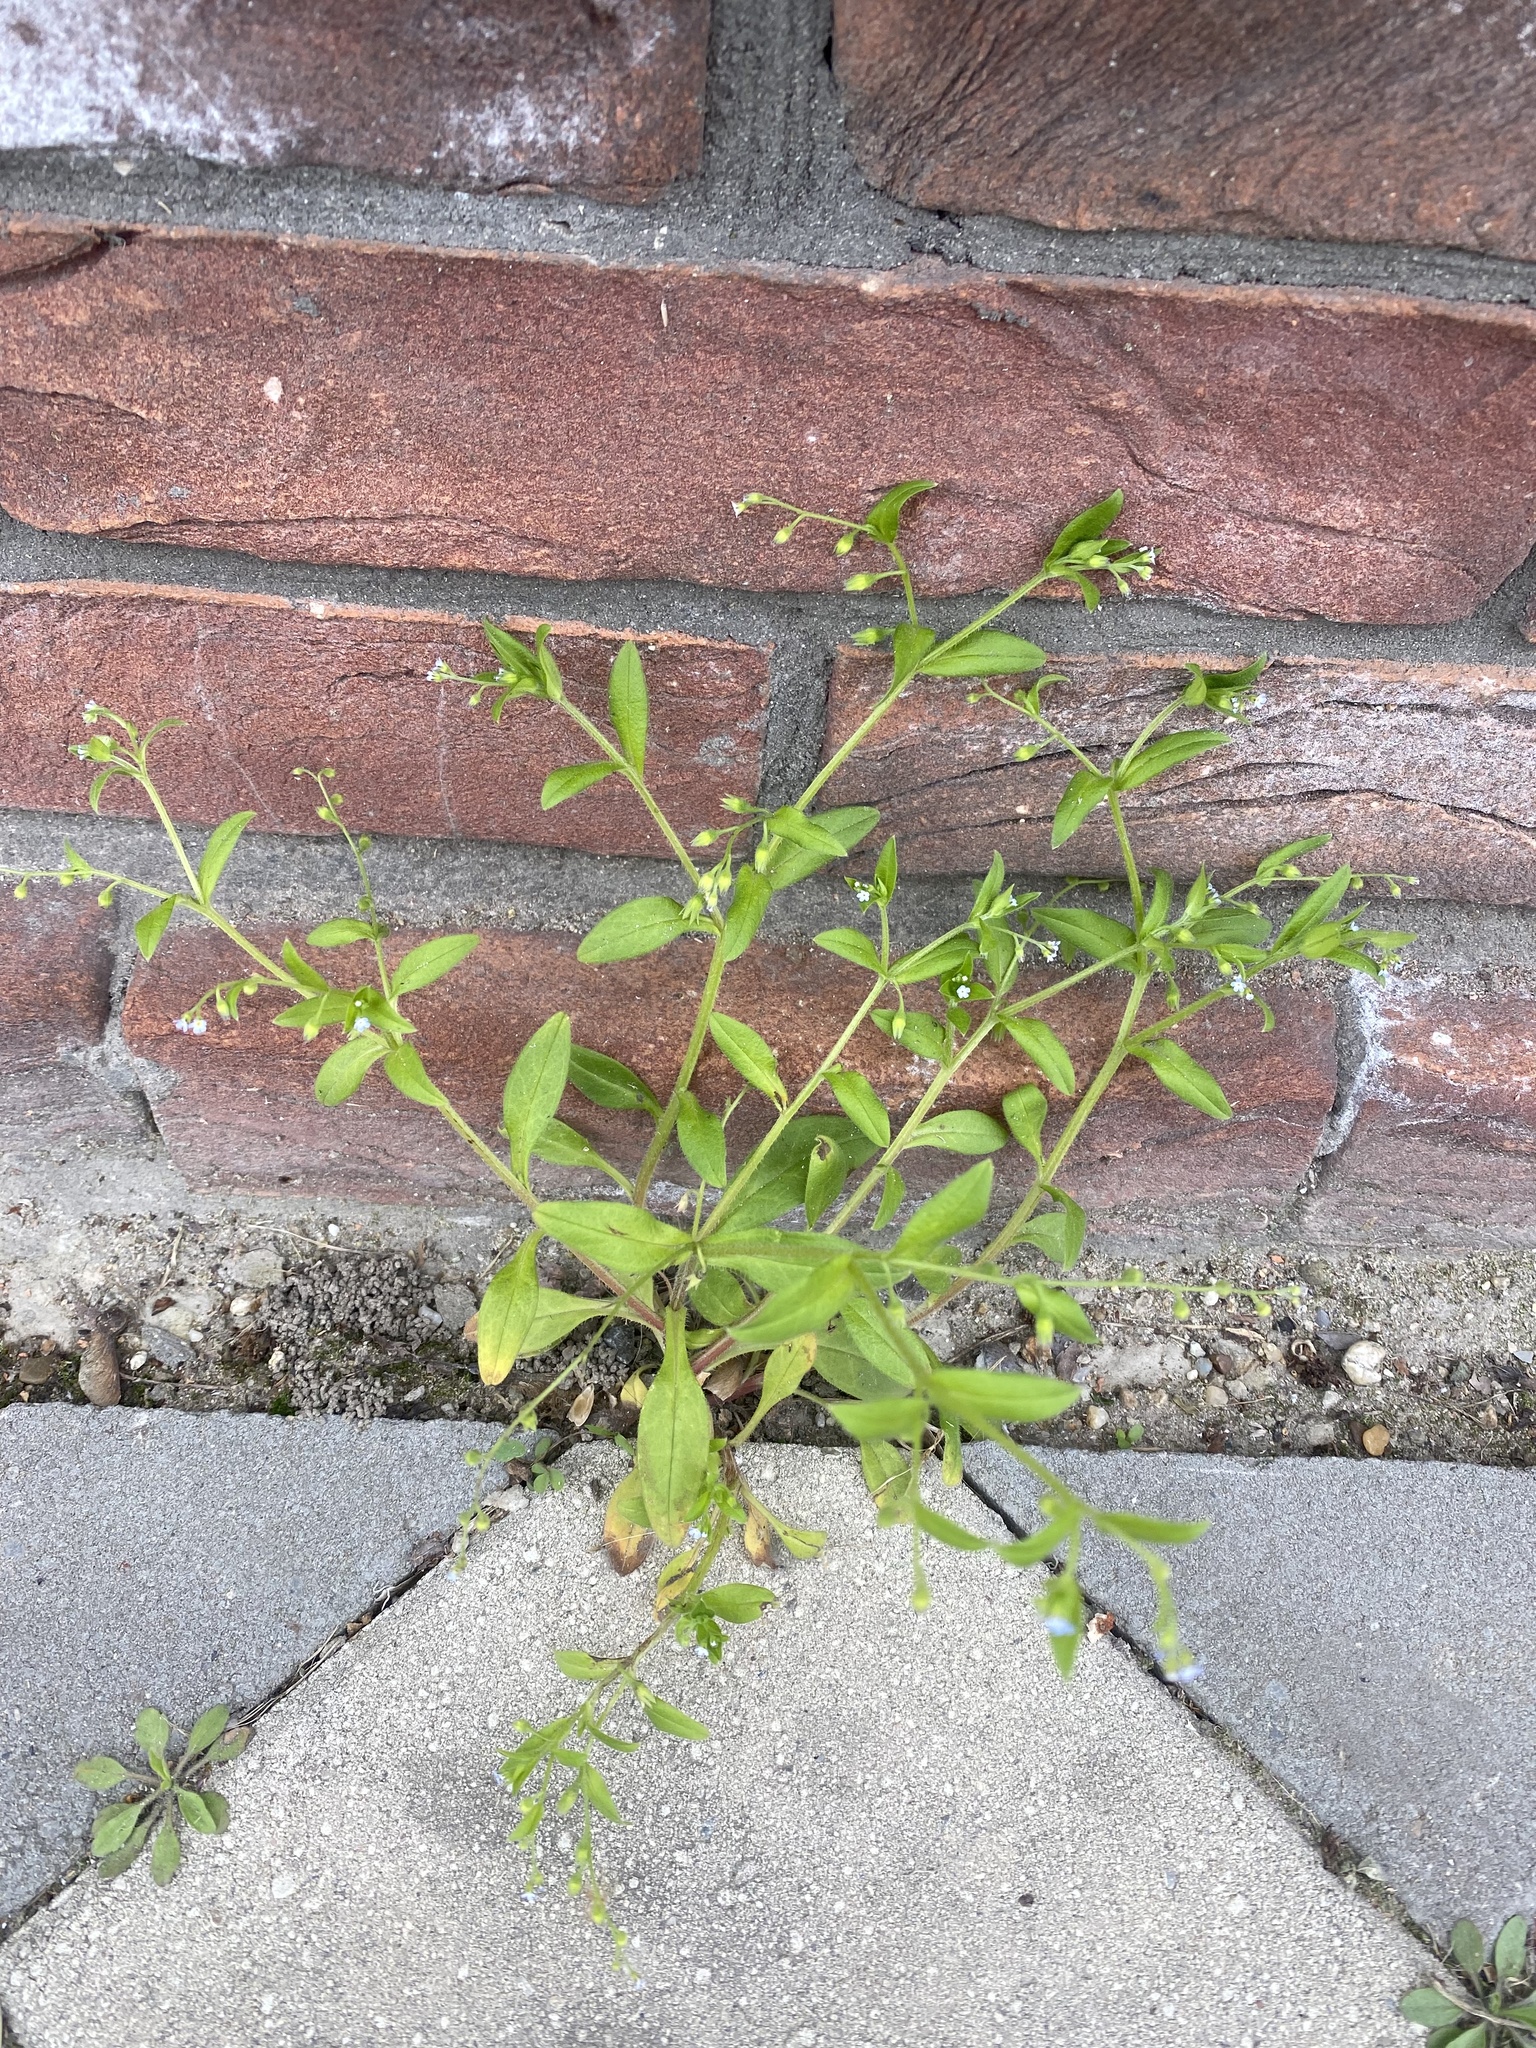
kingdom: Plantae
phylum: Tracheophyta
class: Magnoliopsida
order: Boraginales
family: Boraginaceae
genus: Myosotis
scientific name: Myosotis sparsiflora
